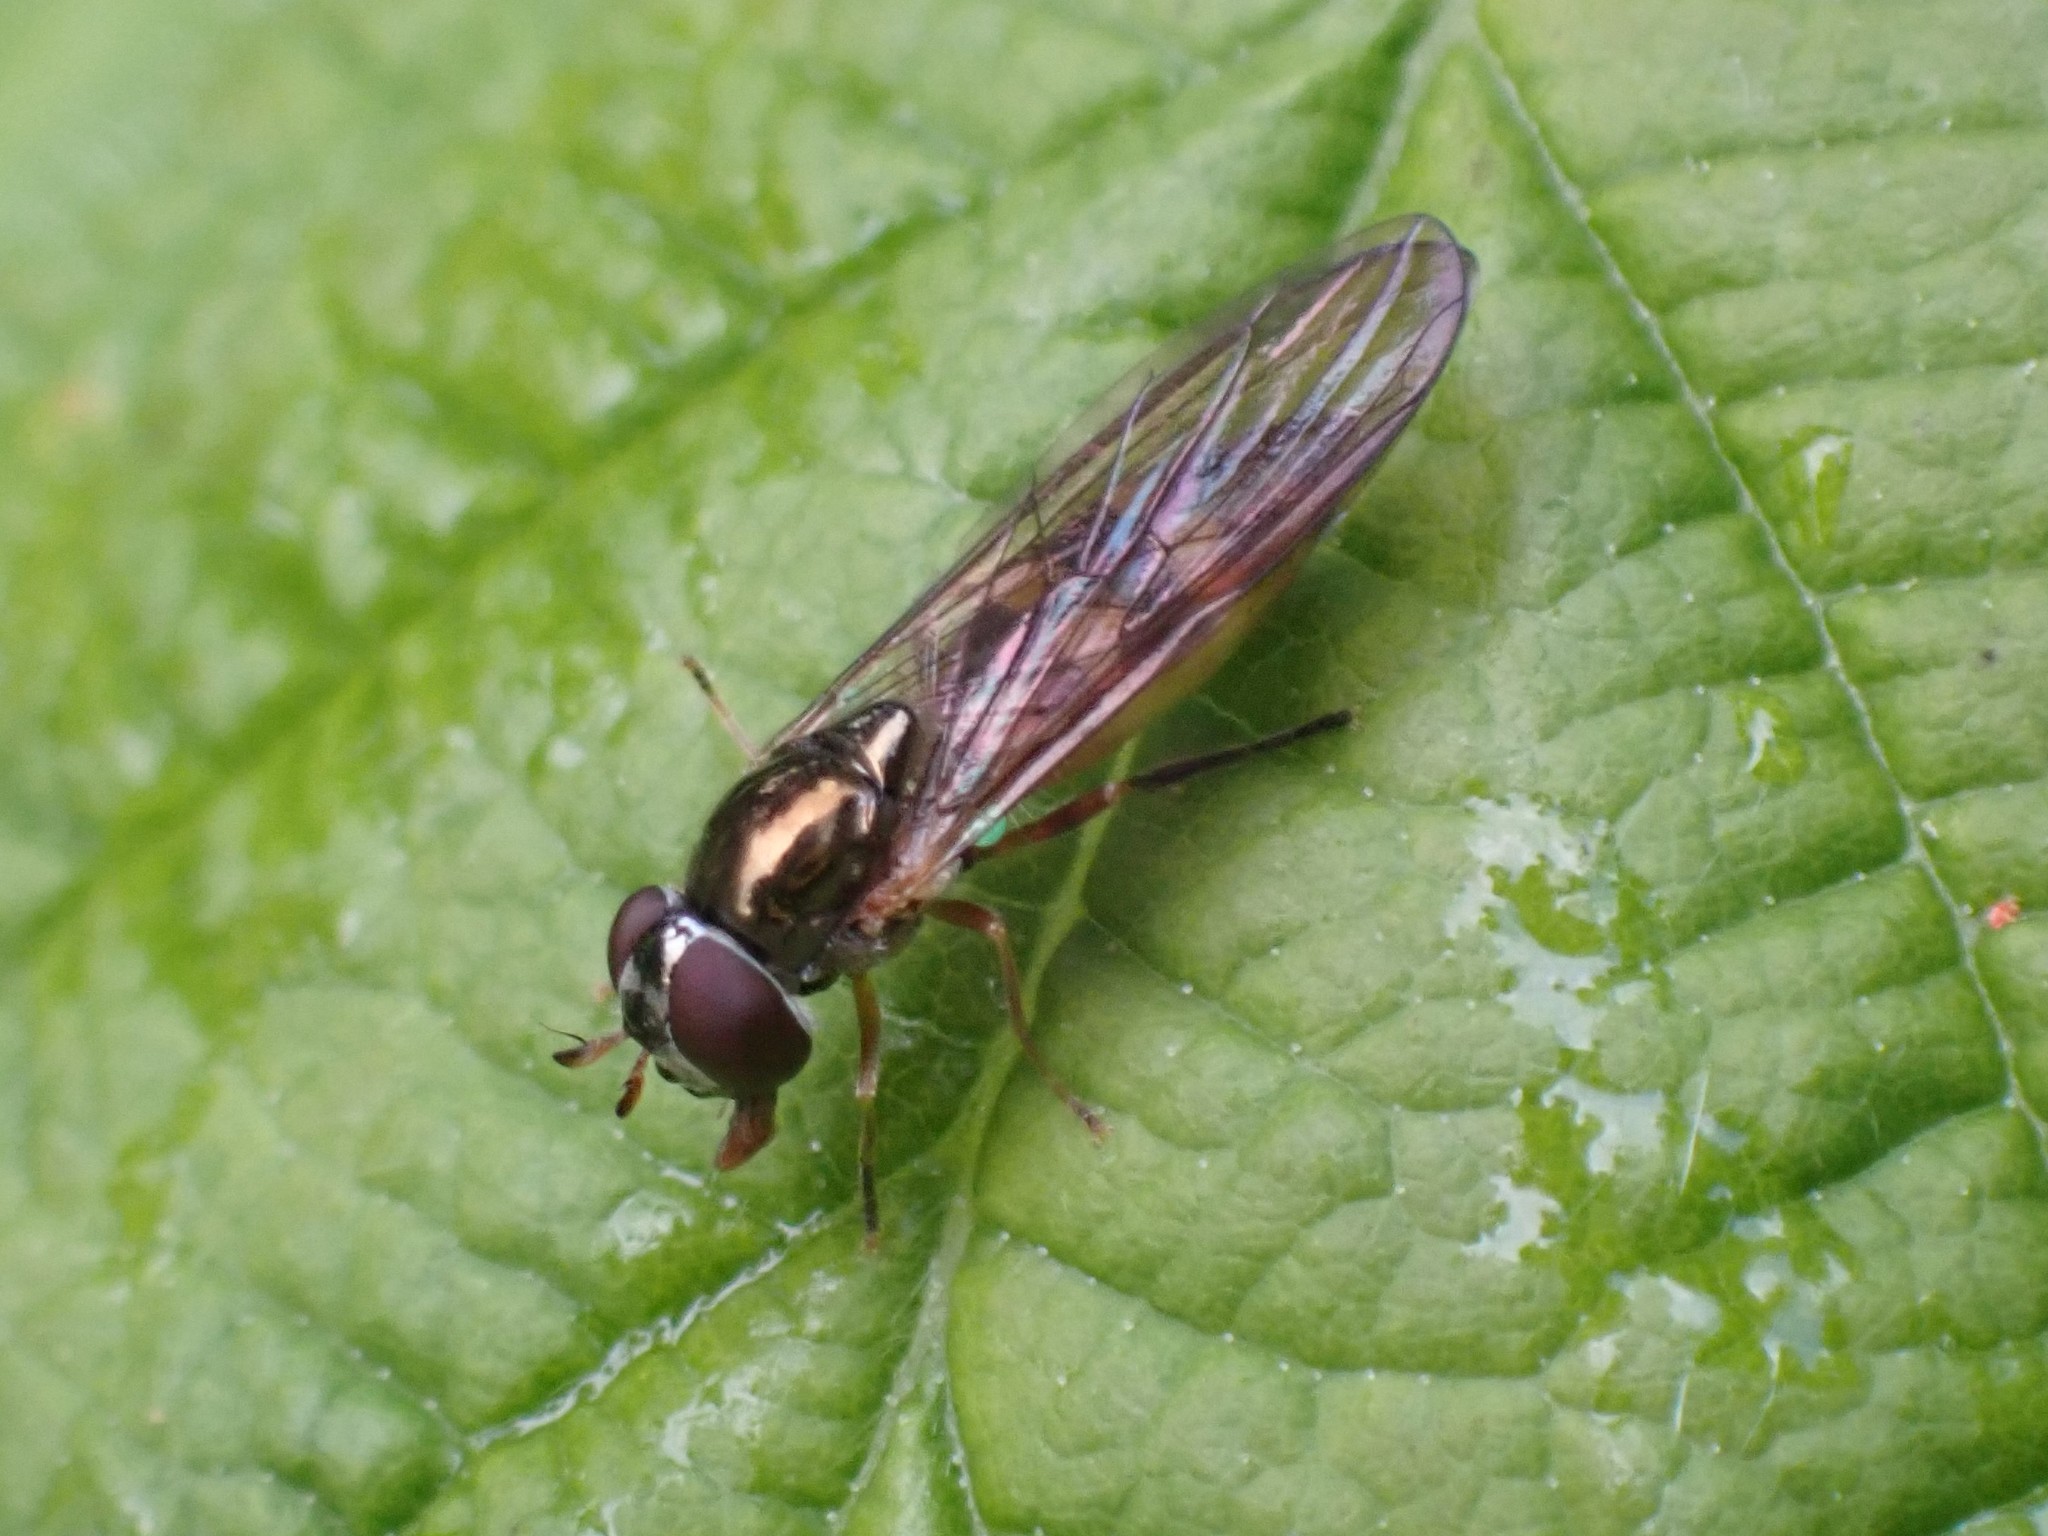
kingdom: Animalia
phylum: Arthropoda
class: Insecta
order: Diptera
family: Syrphidae
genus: Melanostoma
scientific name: Melanostoma mellina
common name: Hover fly
